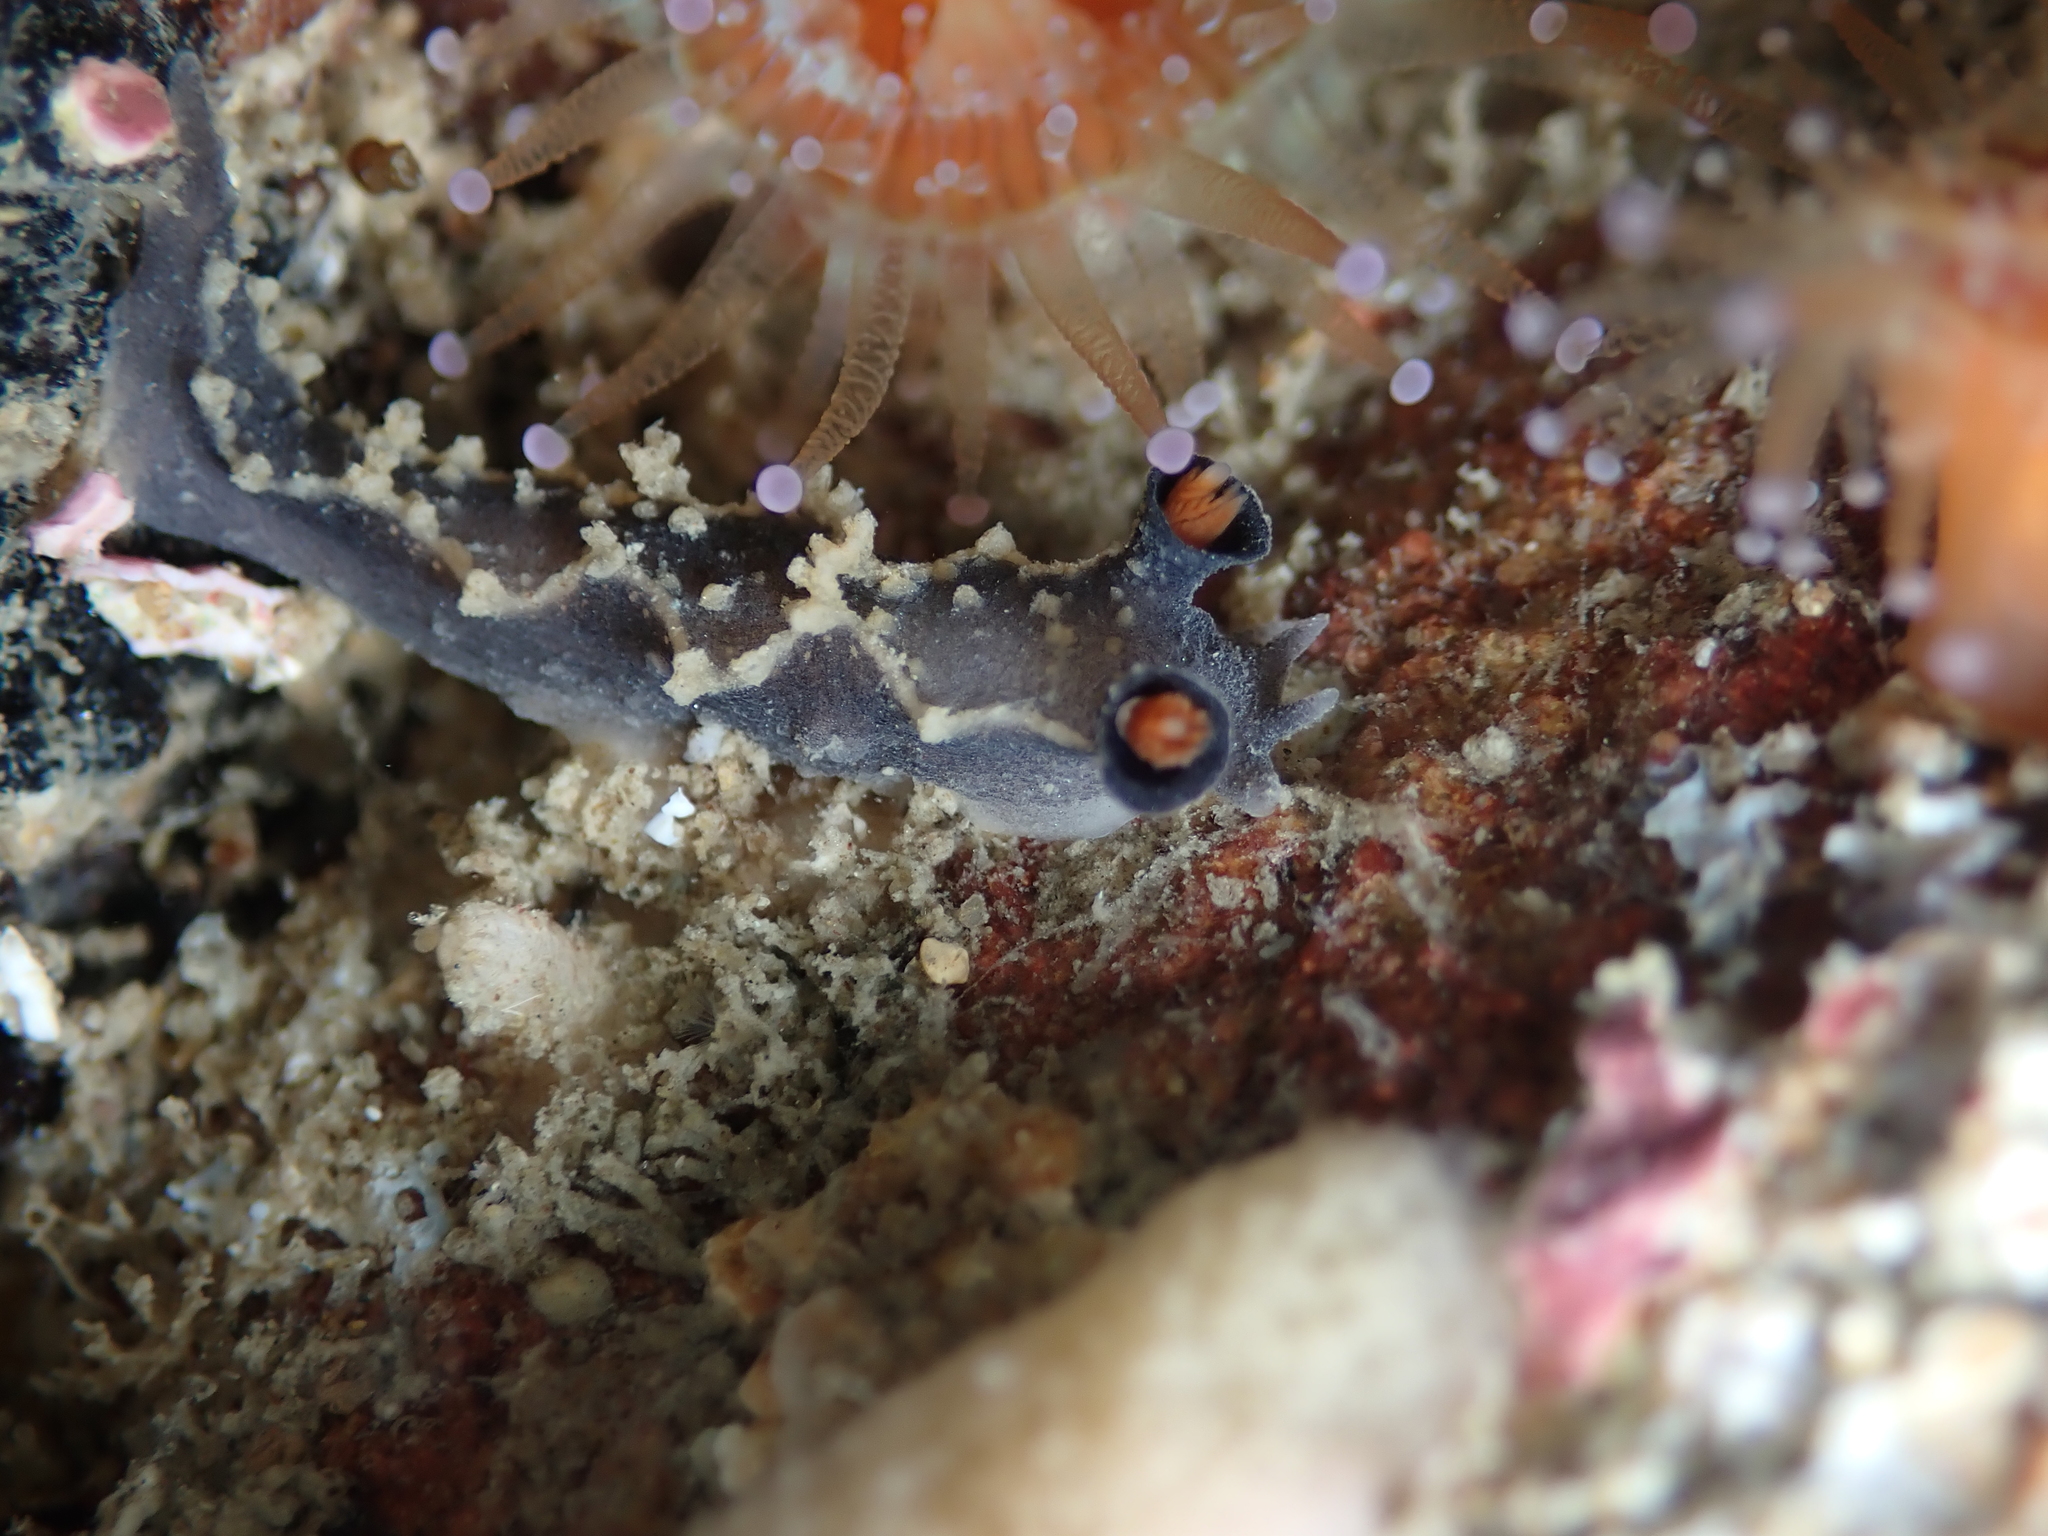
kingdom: Animalia
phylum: Mollusca
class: Gastropoda
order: Nudibranchia
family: Tritoniidae
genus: Tritonia
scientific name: Tritonia flemingi
